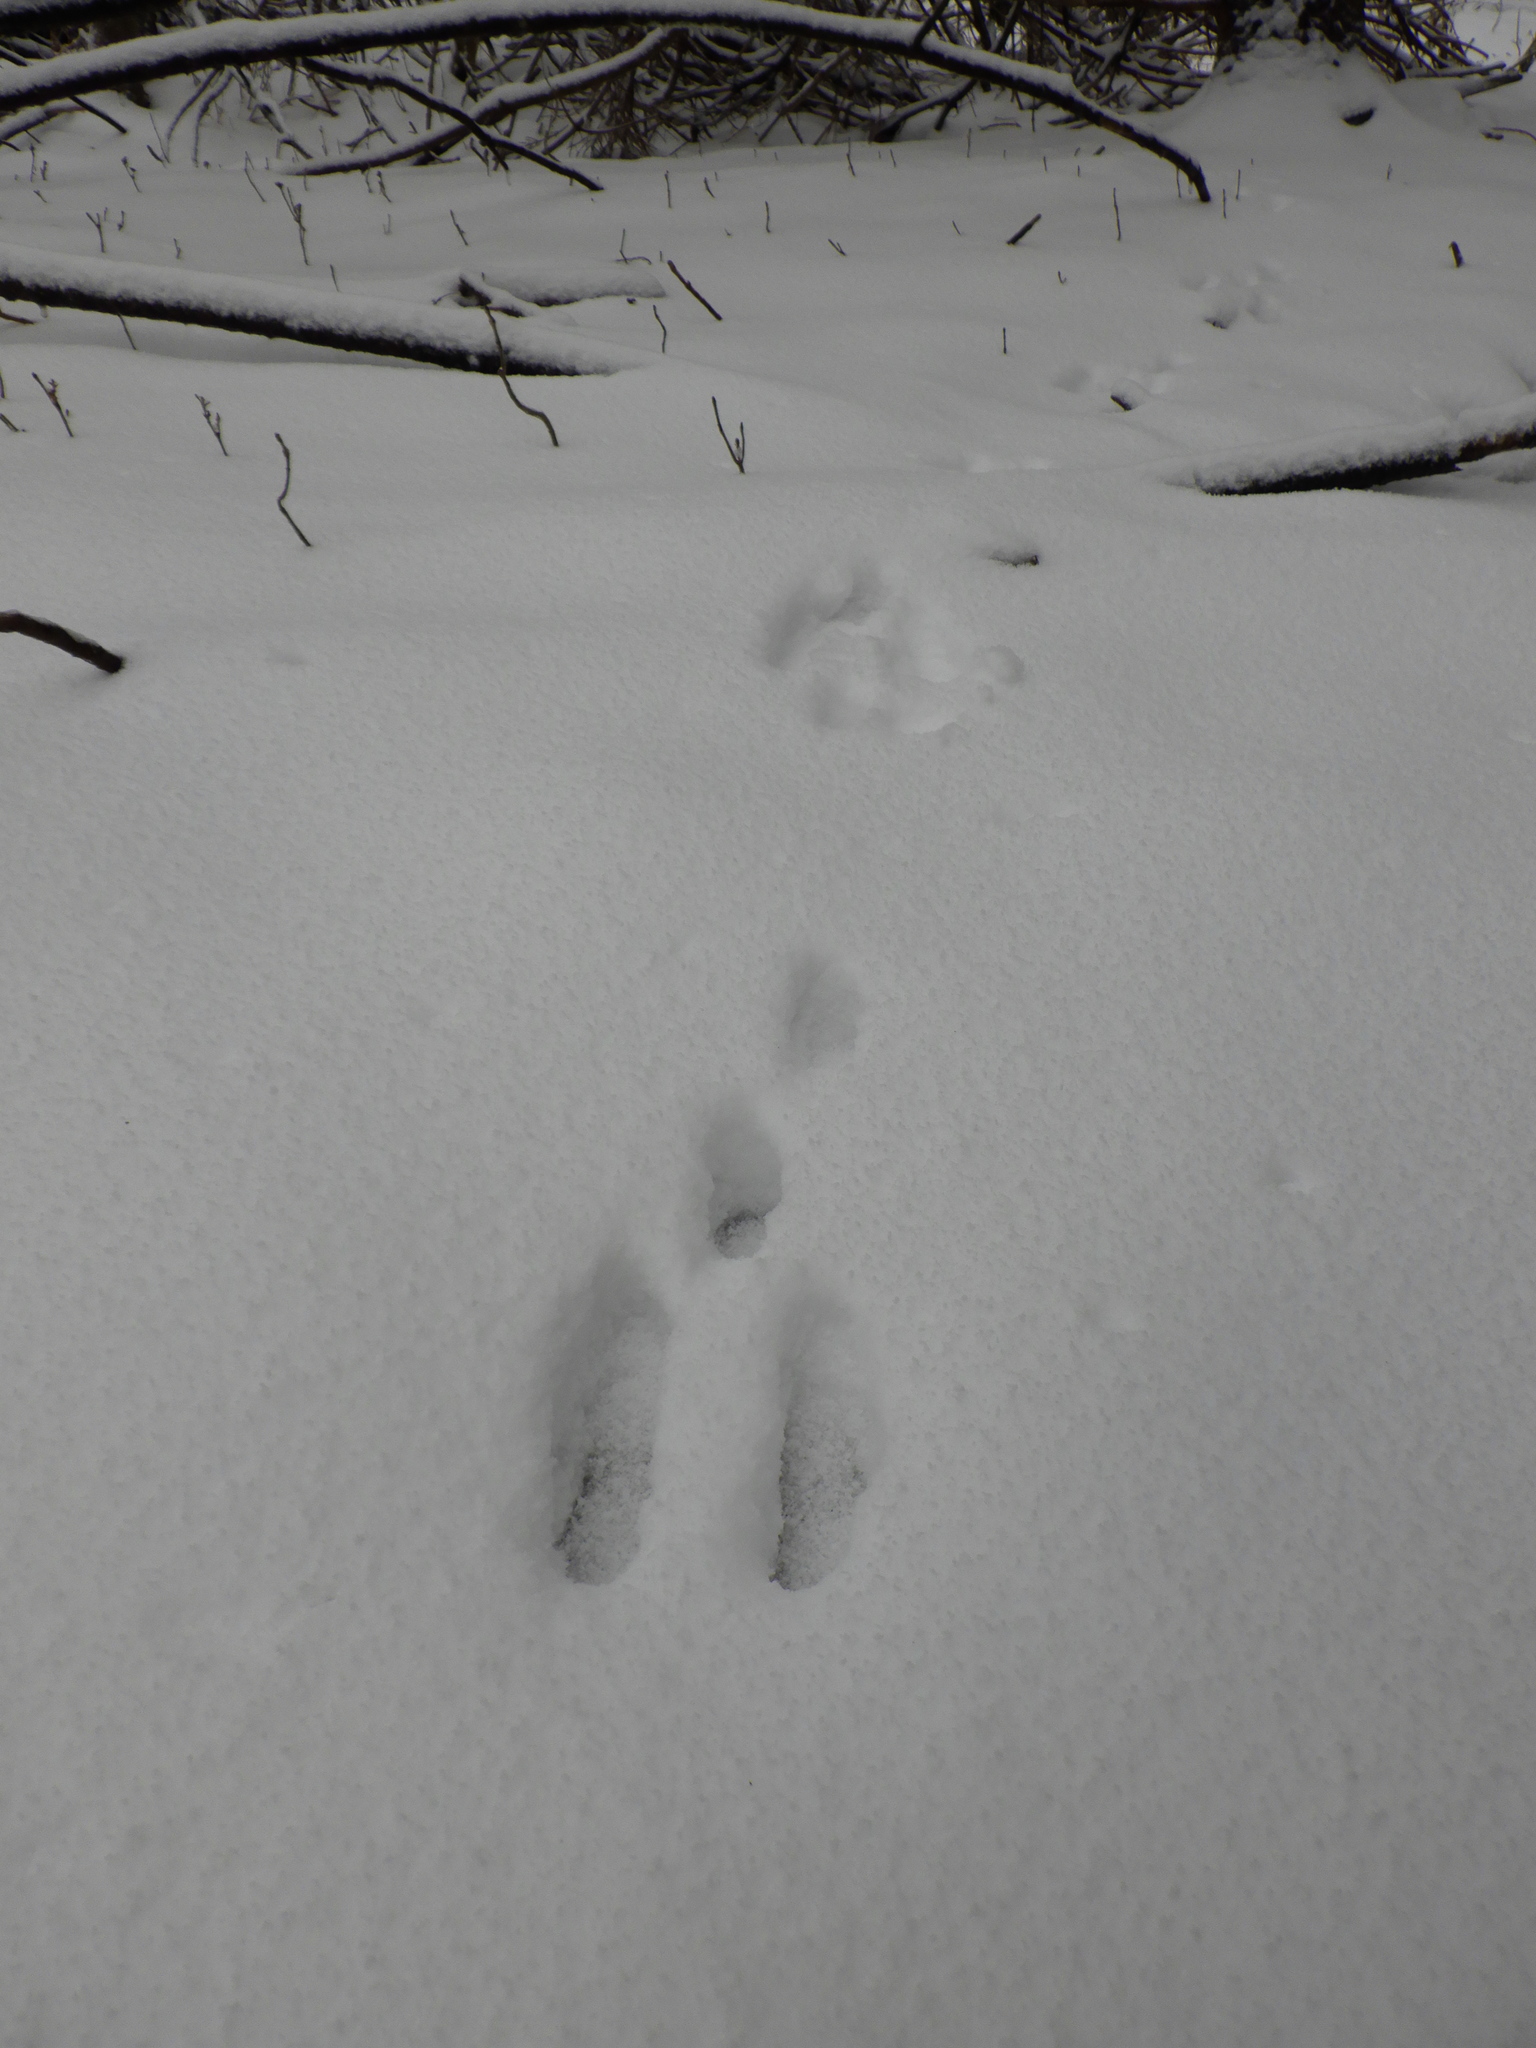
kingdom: Animalia
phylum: Chordata
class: Mammalia
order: Lagomorpha
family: Leporidae
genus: Sylvilagus
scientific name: Sylvilagus floridanus
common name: Eastern cottontail
